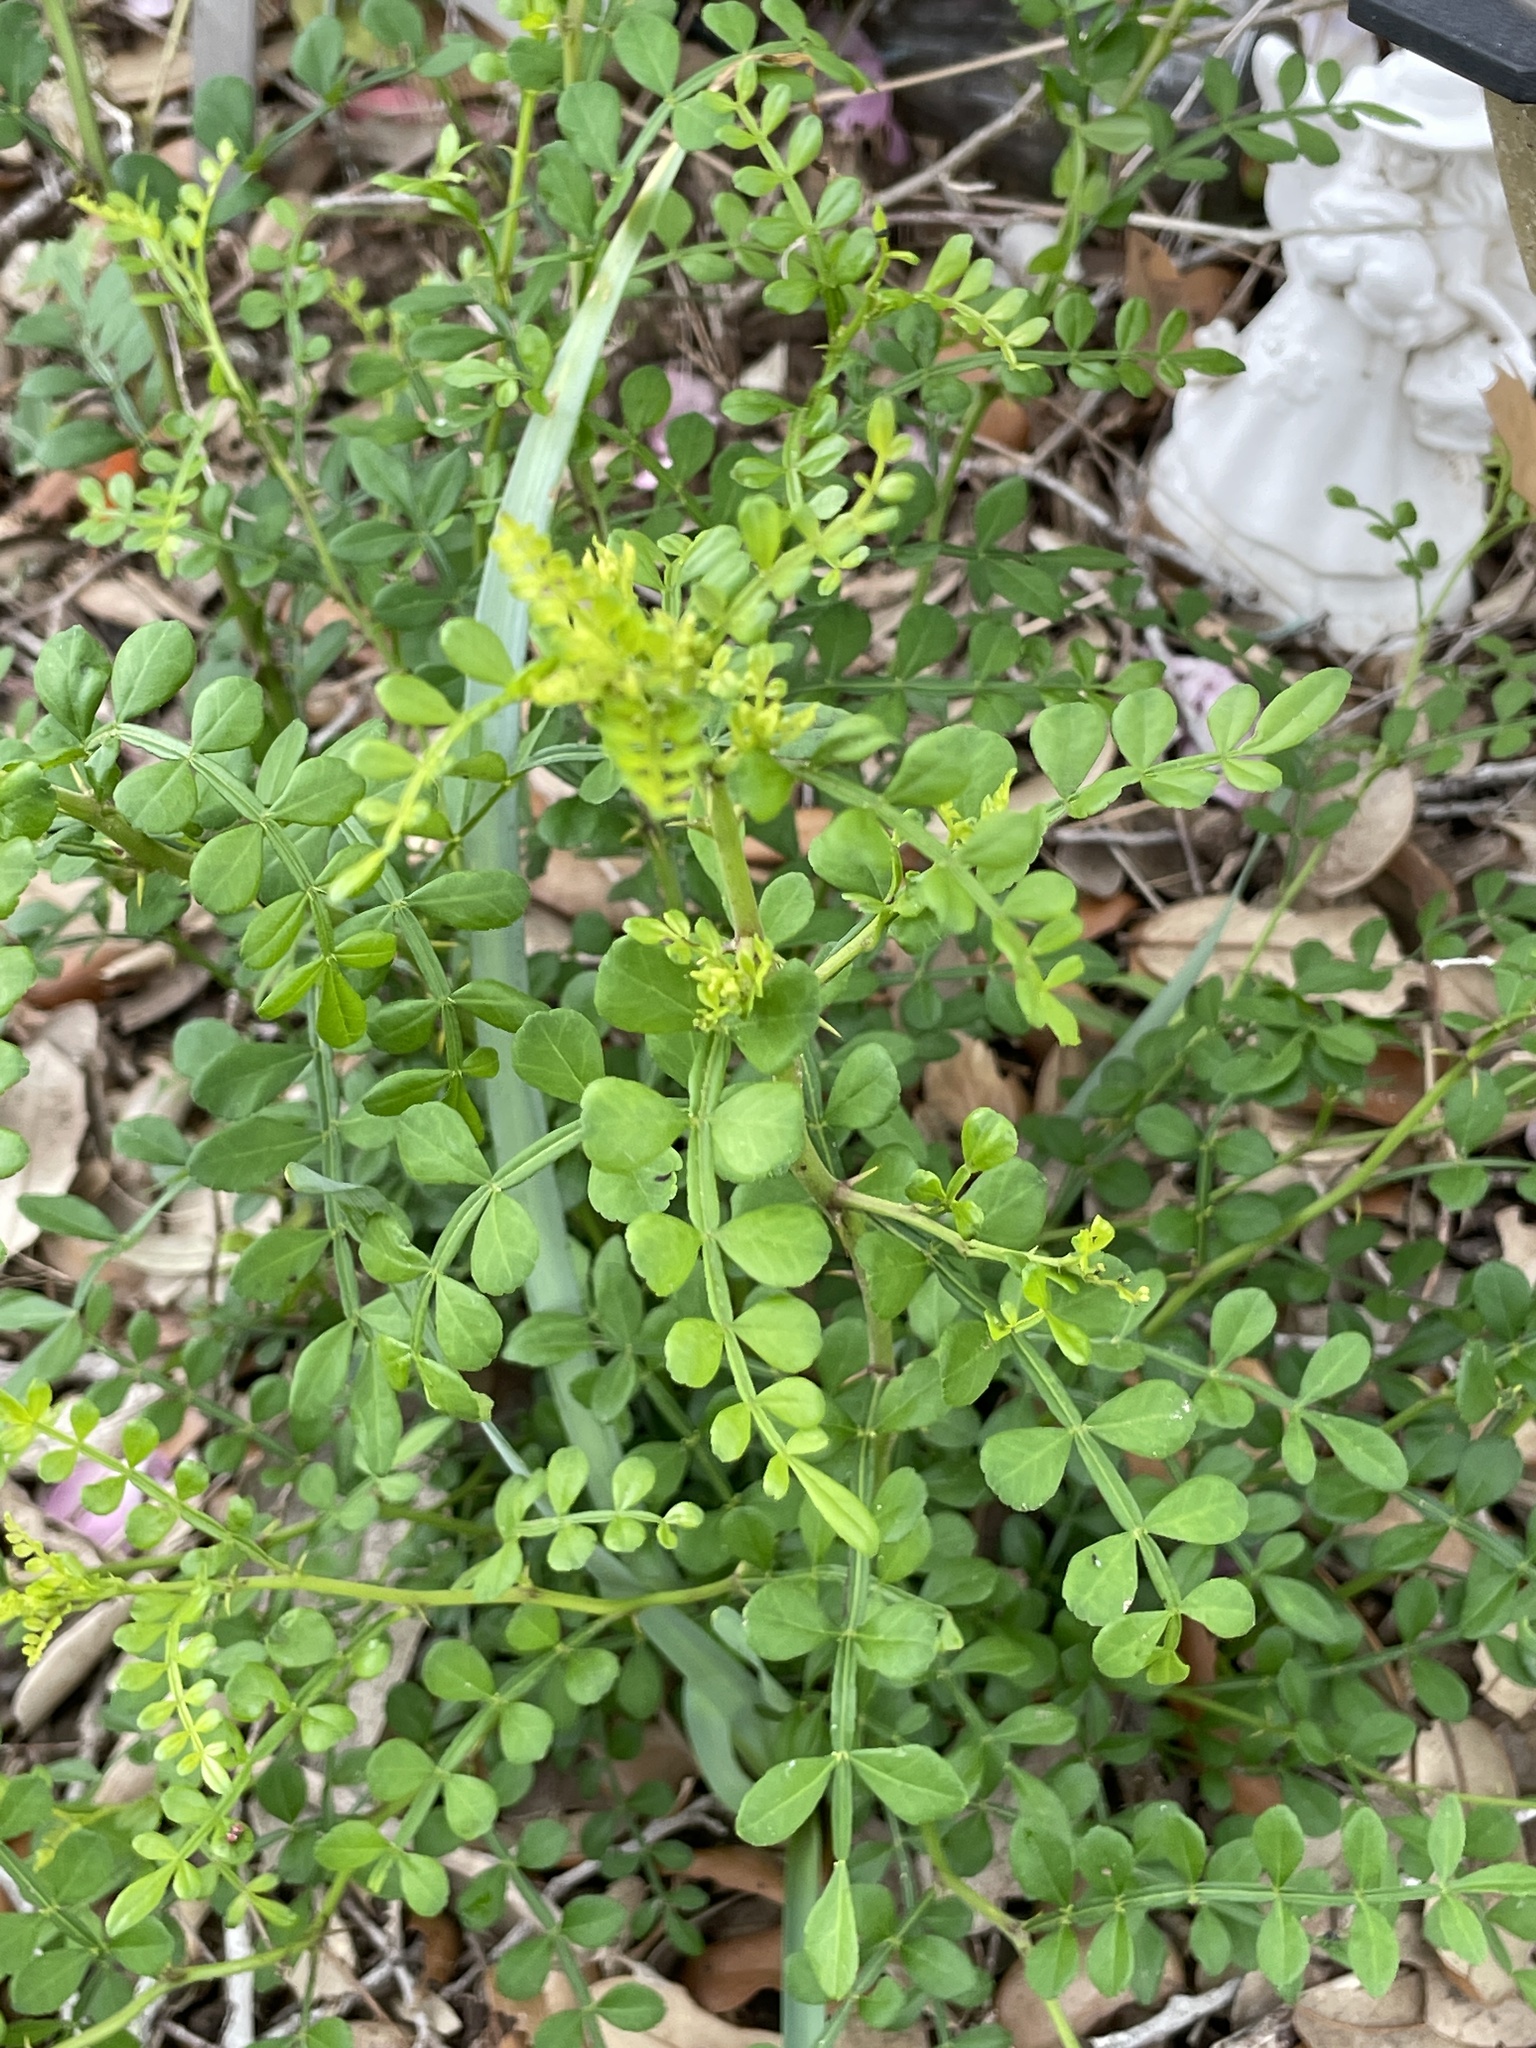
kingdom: Plantae
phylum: Tracheophyta
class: Magnoliopsida
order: Sapindales
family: Rutaceae
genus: Zanthoxylum
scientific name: Zanthoxylum fagara
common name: Lime prickly-ash
